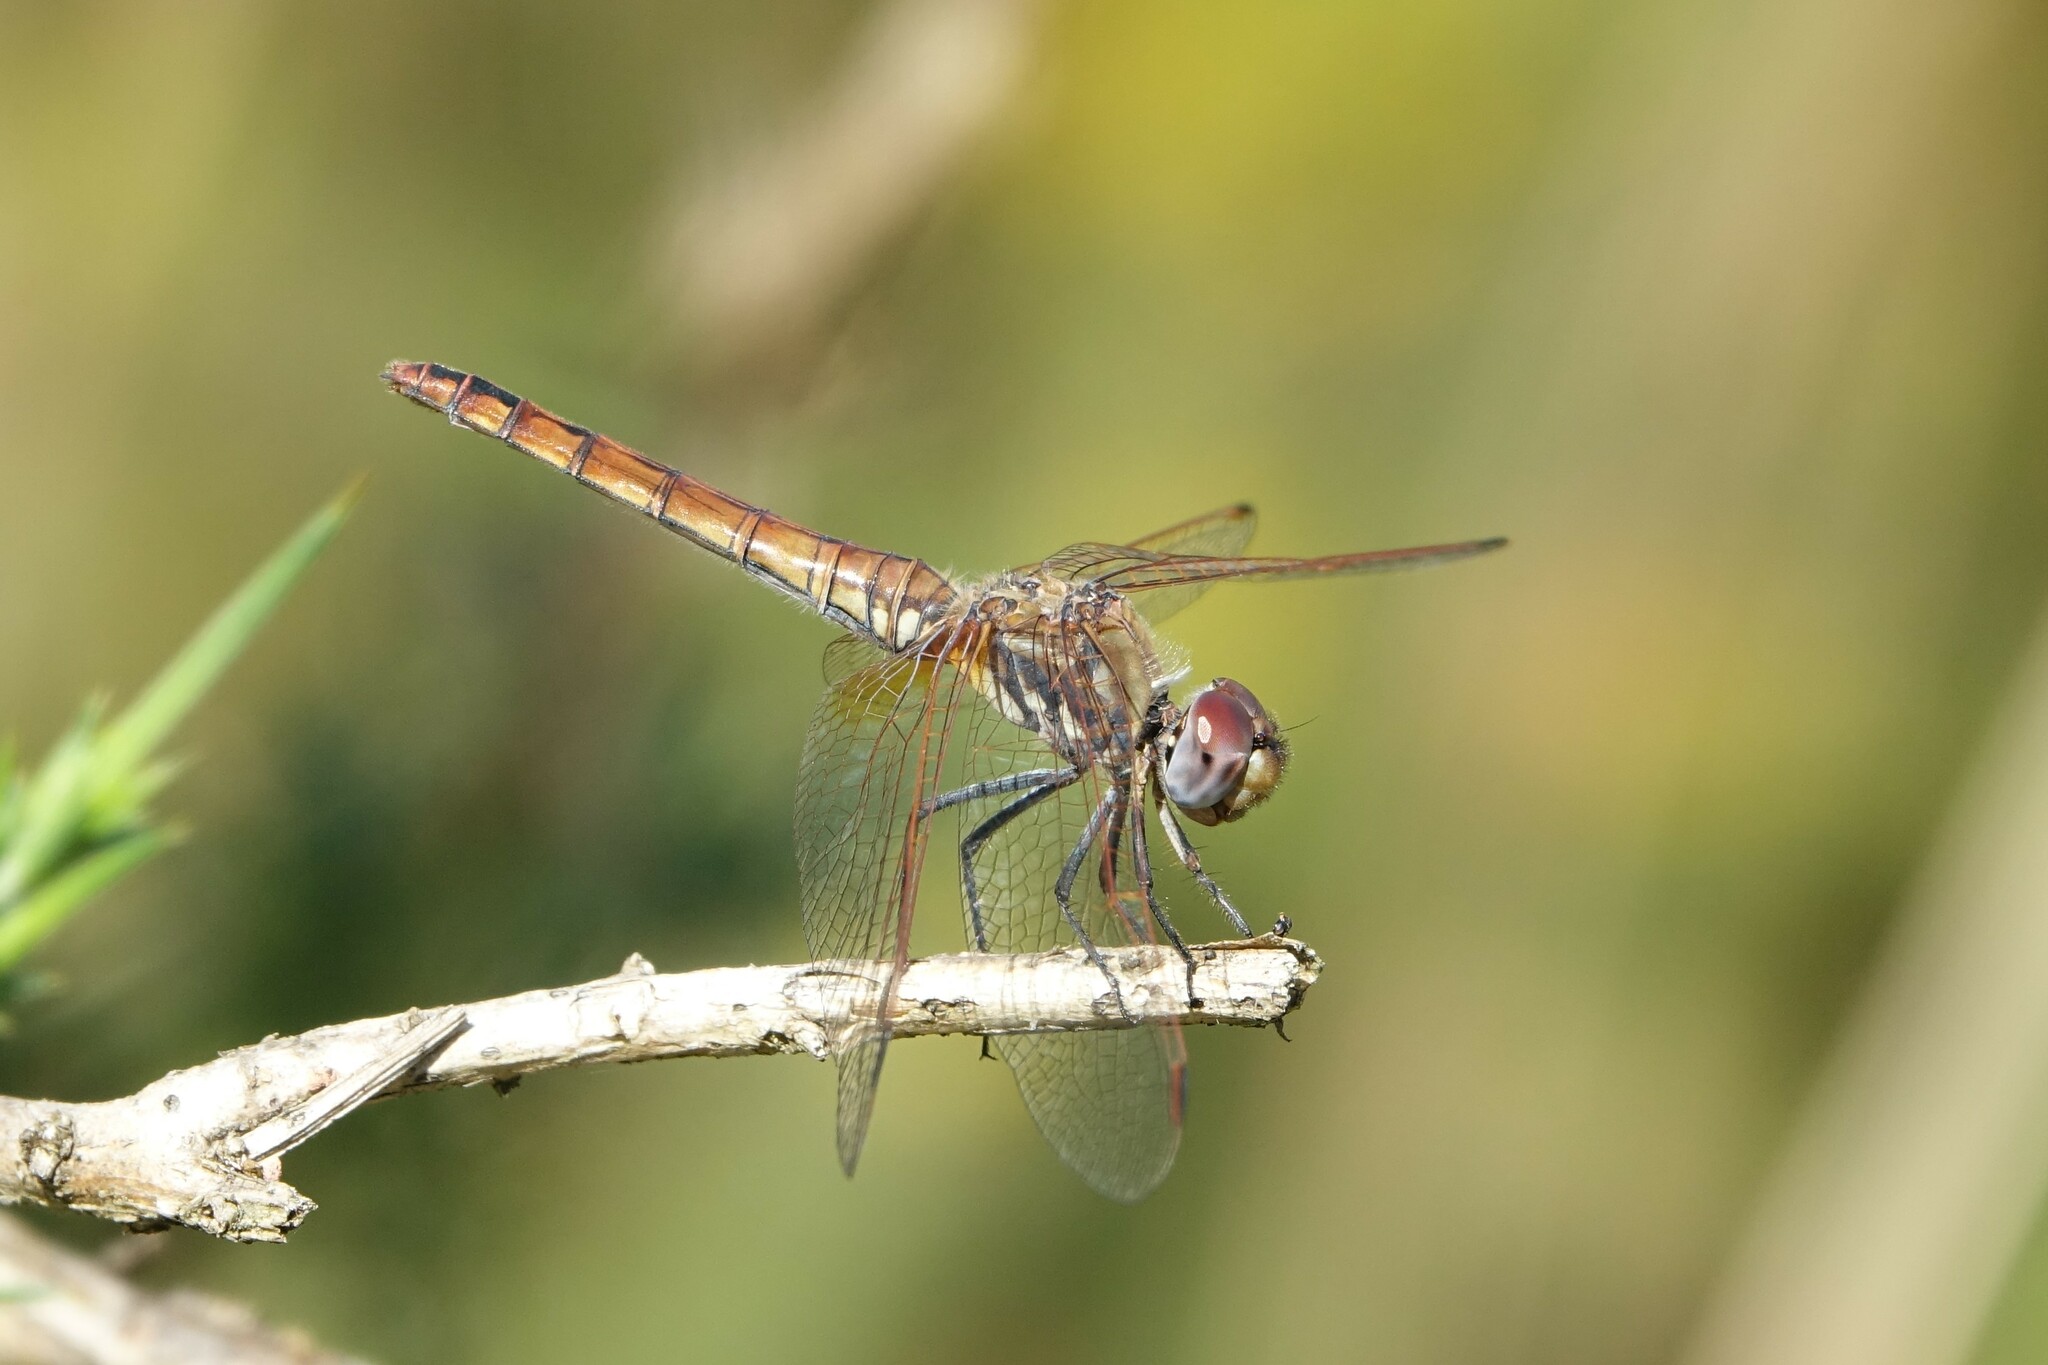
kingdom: Animalia
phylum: Arthropoda
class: Insecta
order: Odonata
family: Libellulidae
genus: Trithemis
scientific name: Trithemis annulata
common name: Violet dropwing
